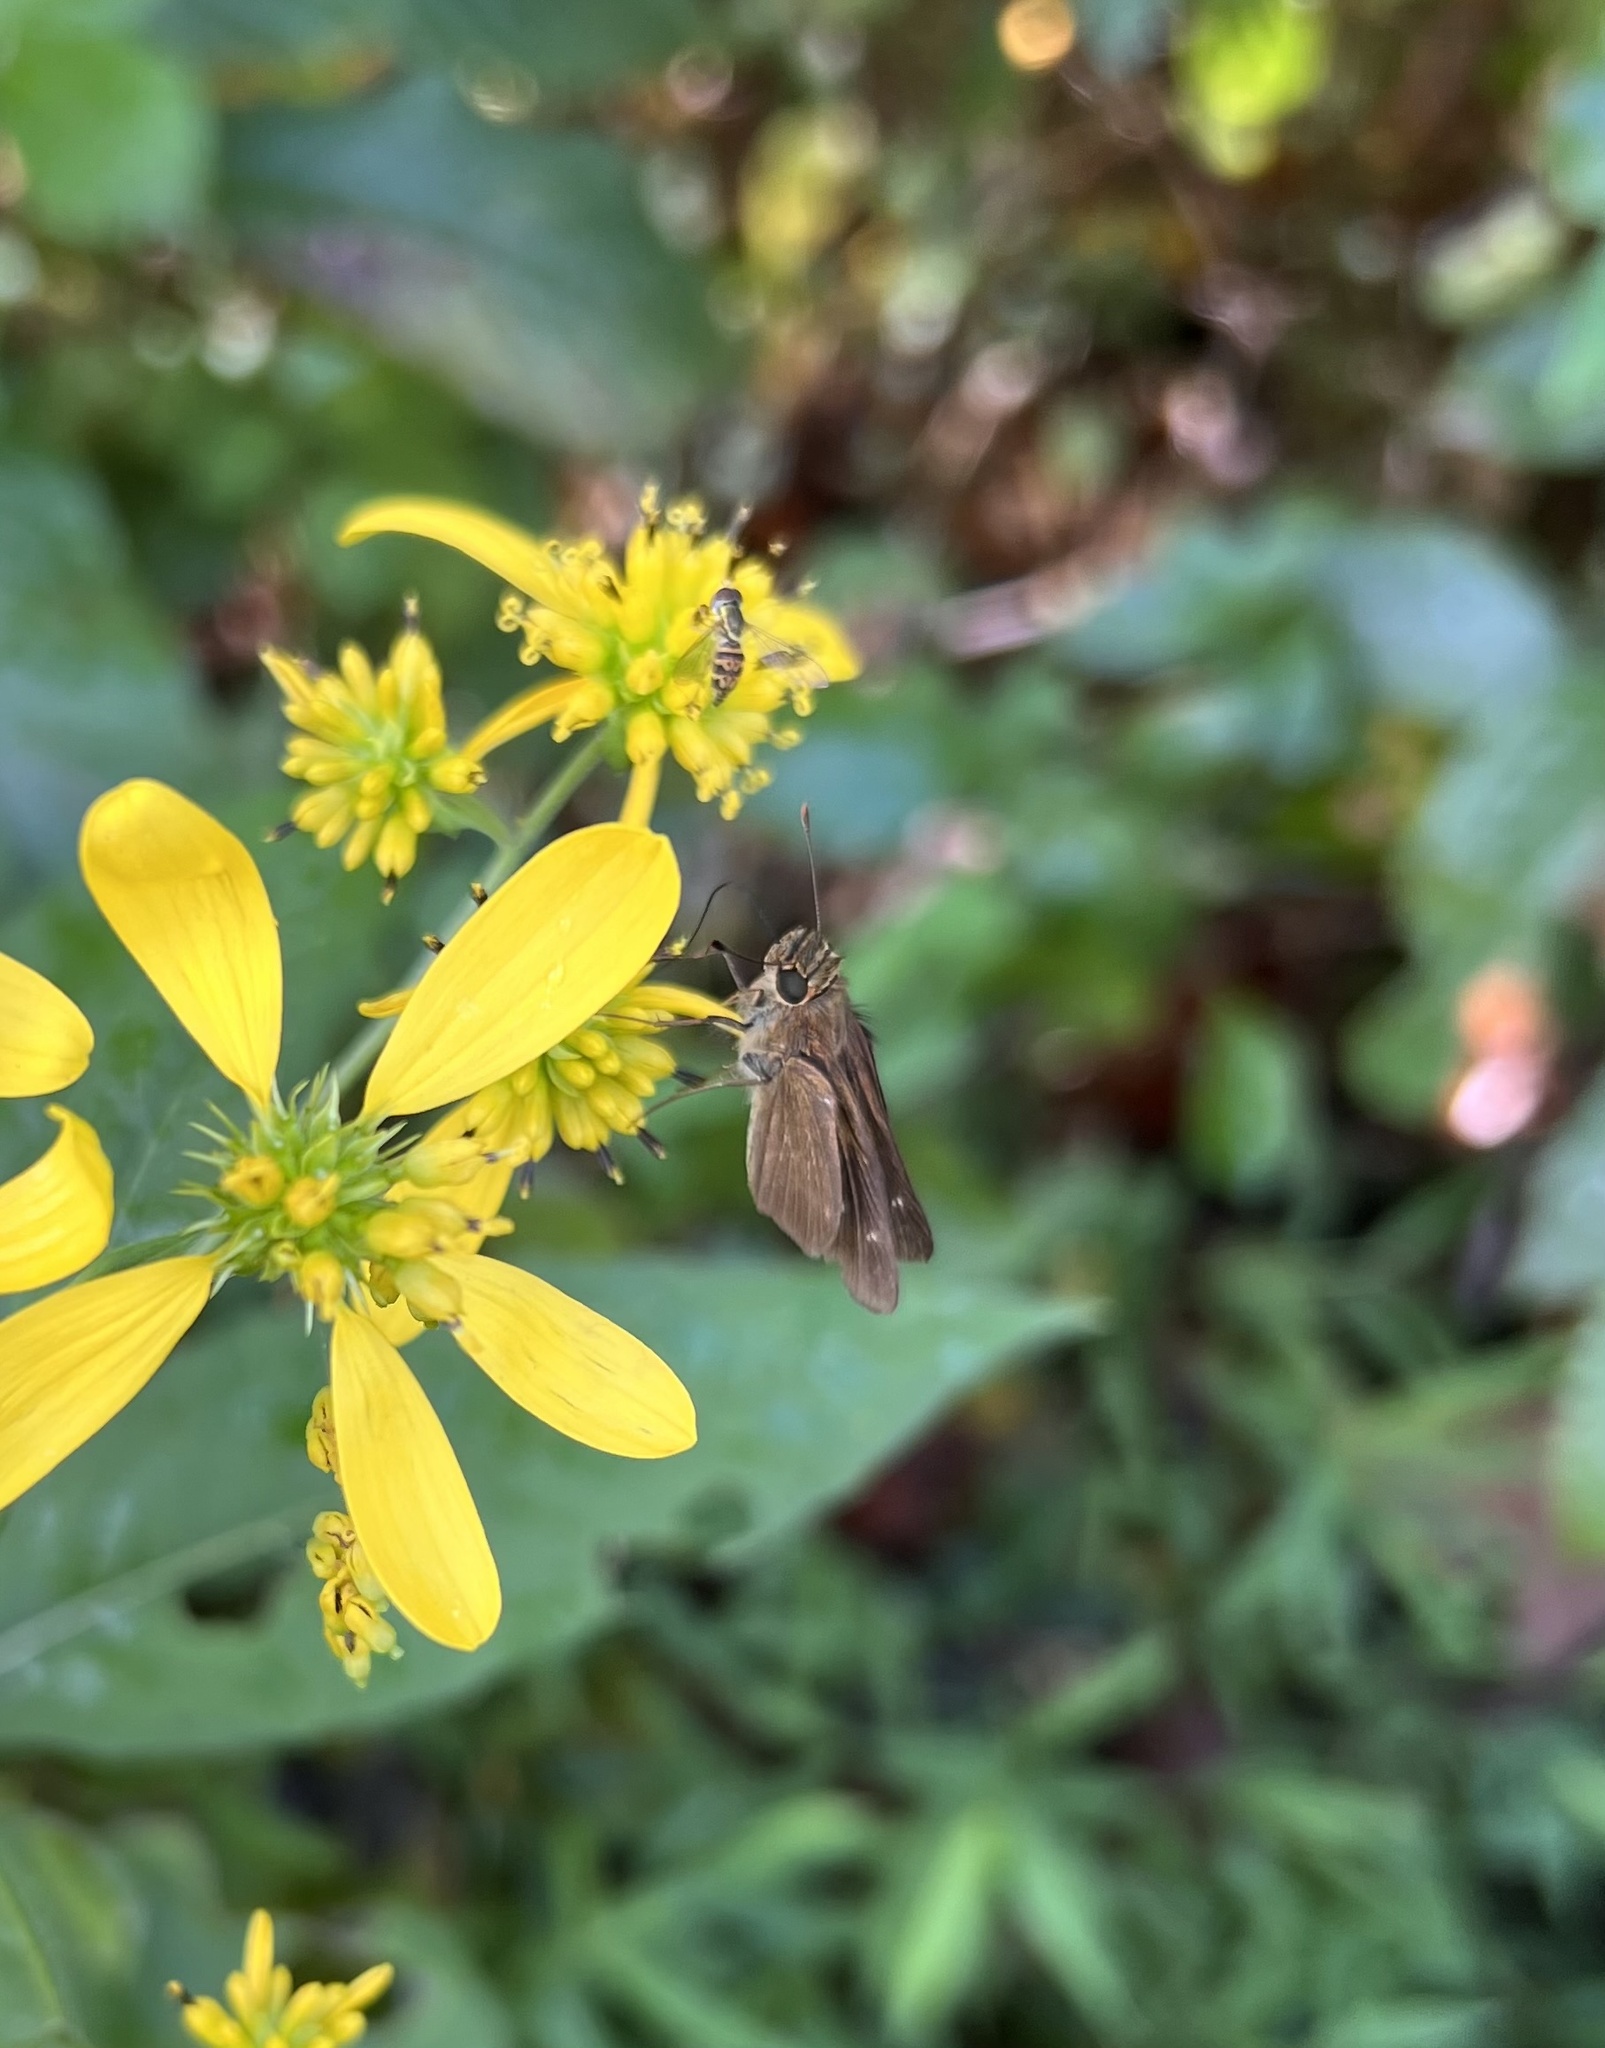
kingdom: Animalia
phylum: Arthropoda
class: Insecta
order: Lepidoptera
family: Hesperiidae
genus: Panoquina
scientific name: Panoquina ocola
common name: Ocola skipper
